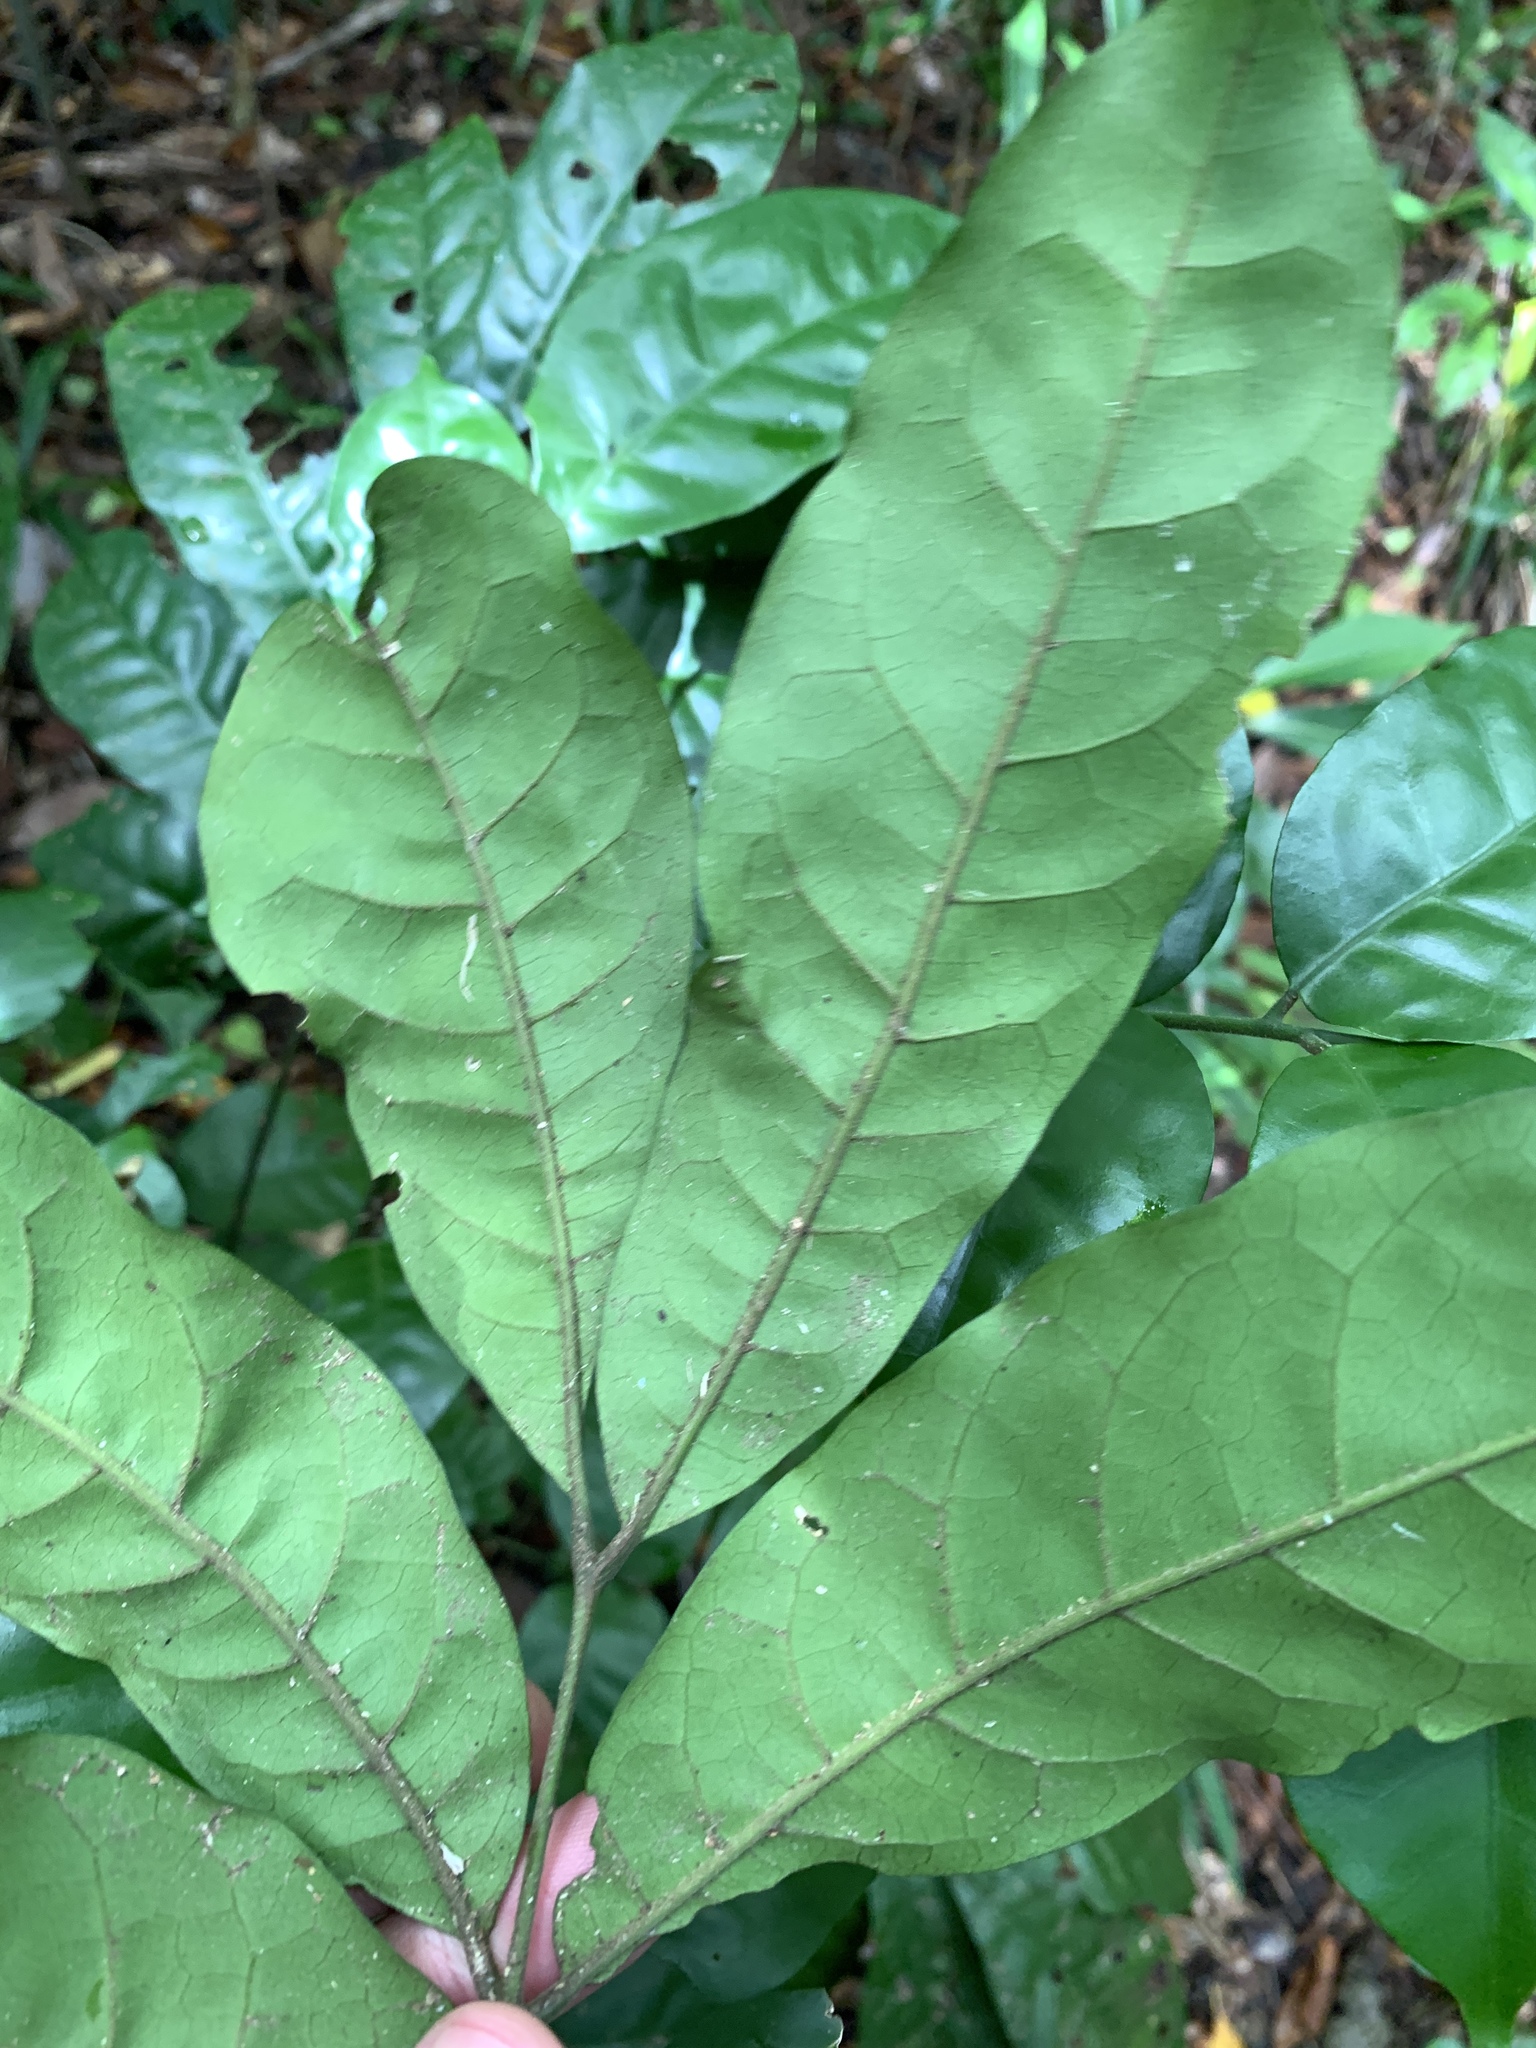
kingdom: Plantae
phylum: Tracheophyta
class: Magnoliopsida
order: Sapindales
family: Meliaceae
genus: Epicharis
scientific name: Epicharis cumingiana
